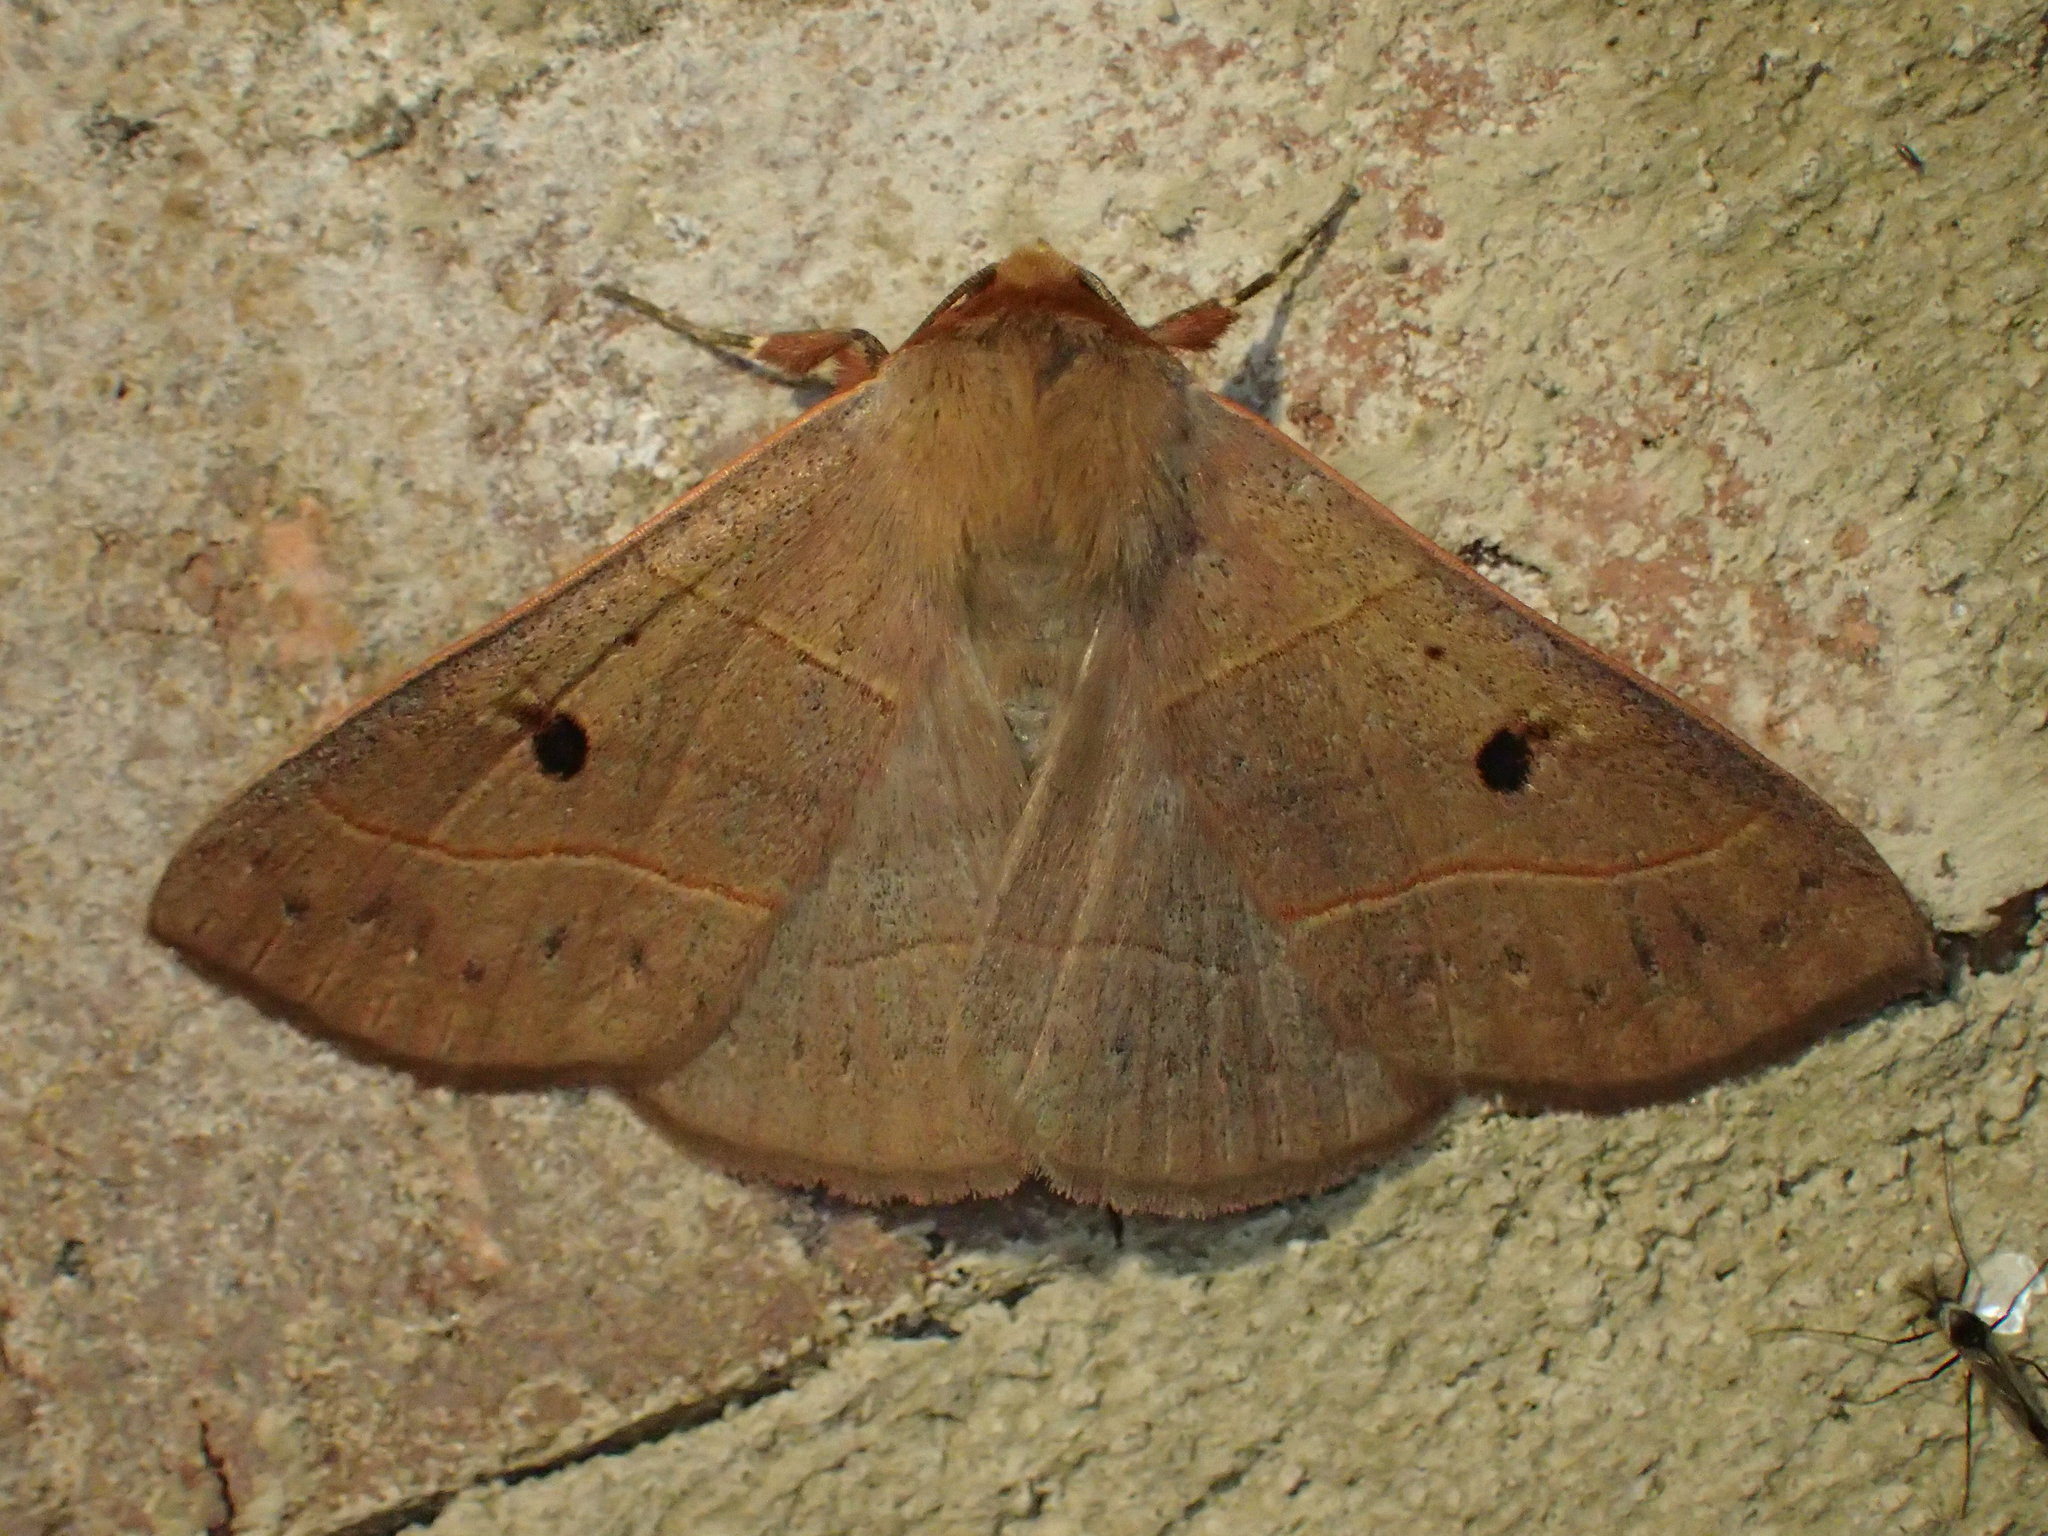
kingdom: Animalia
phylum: Arthropoda
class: Insecta
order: Lepidoptera
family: Erebidae
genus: Panopoda
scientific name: Panopoda rufimargo
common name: Red-lined panopoda moth
